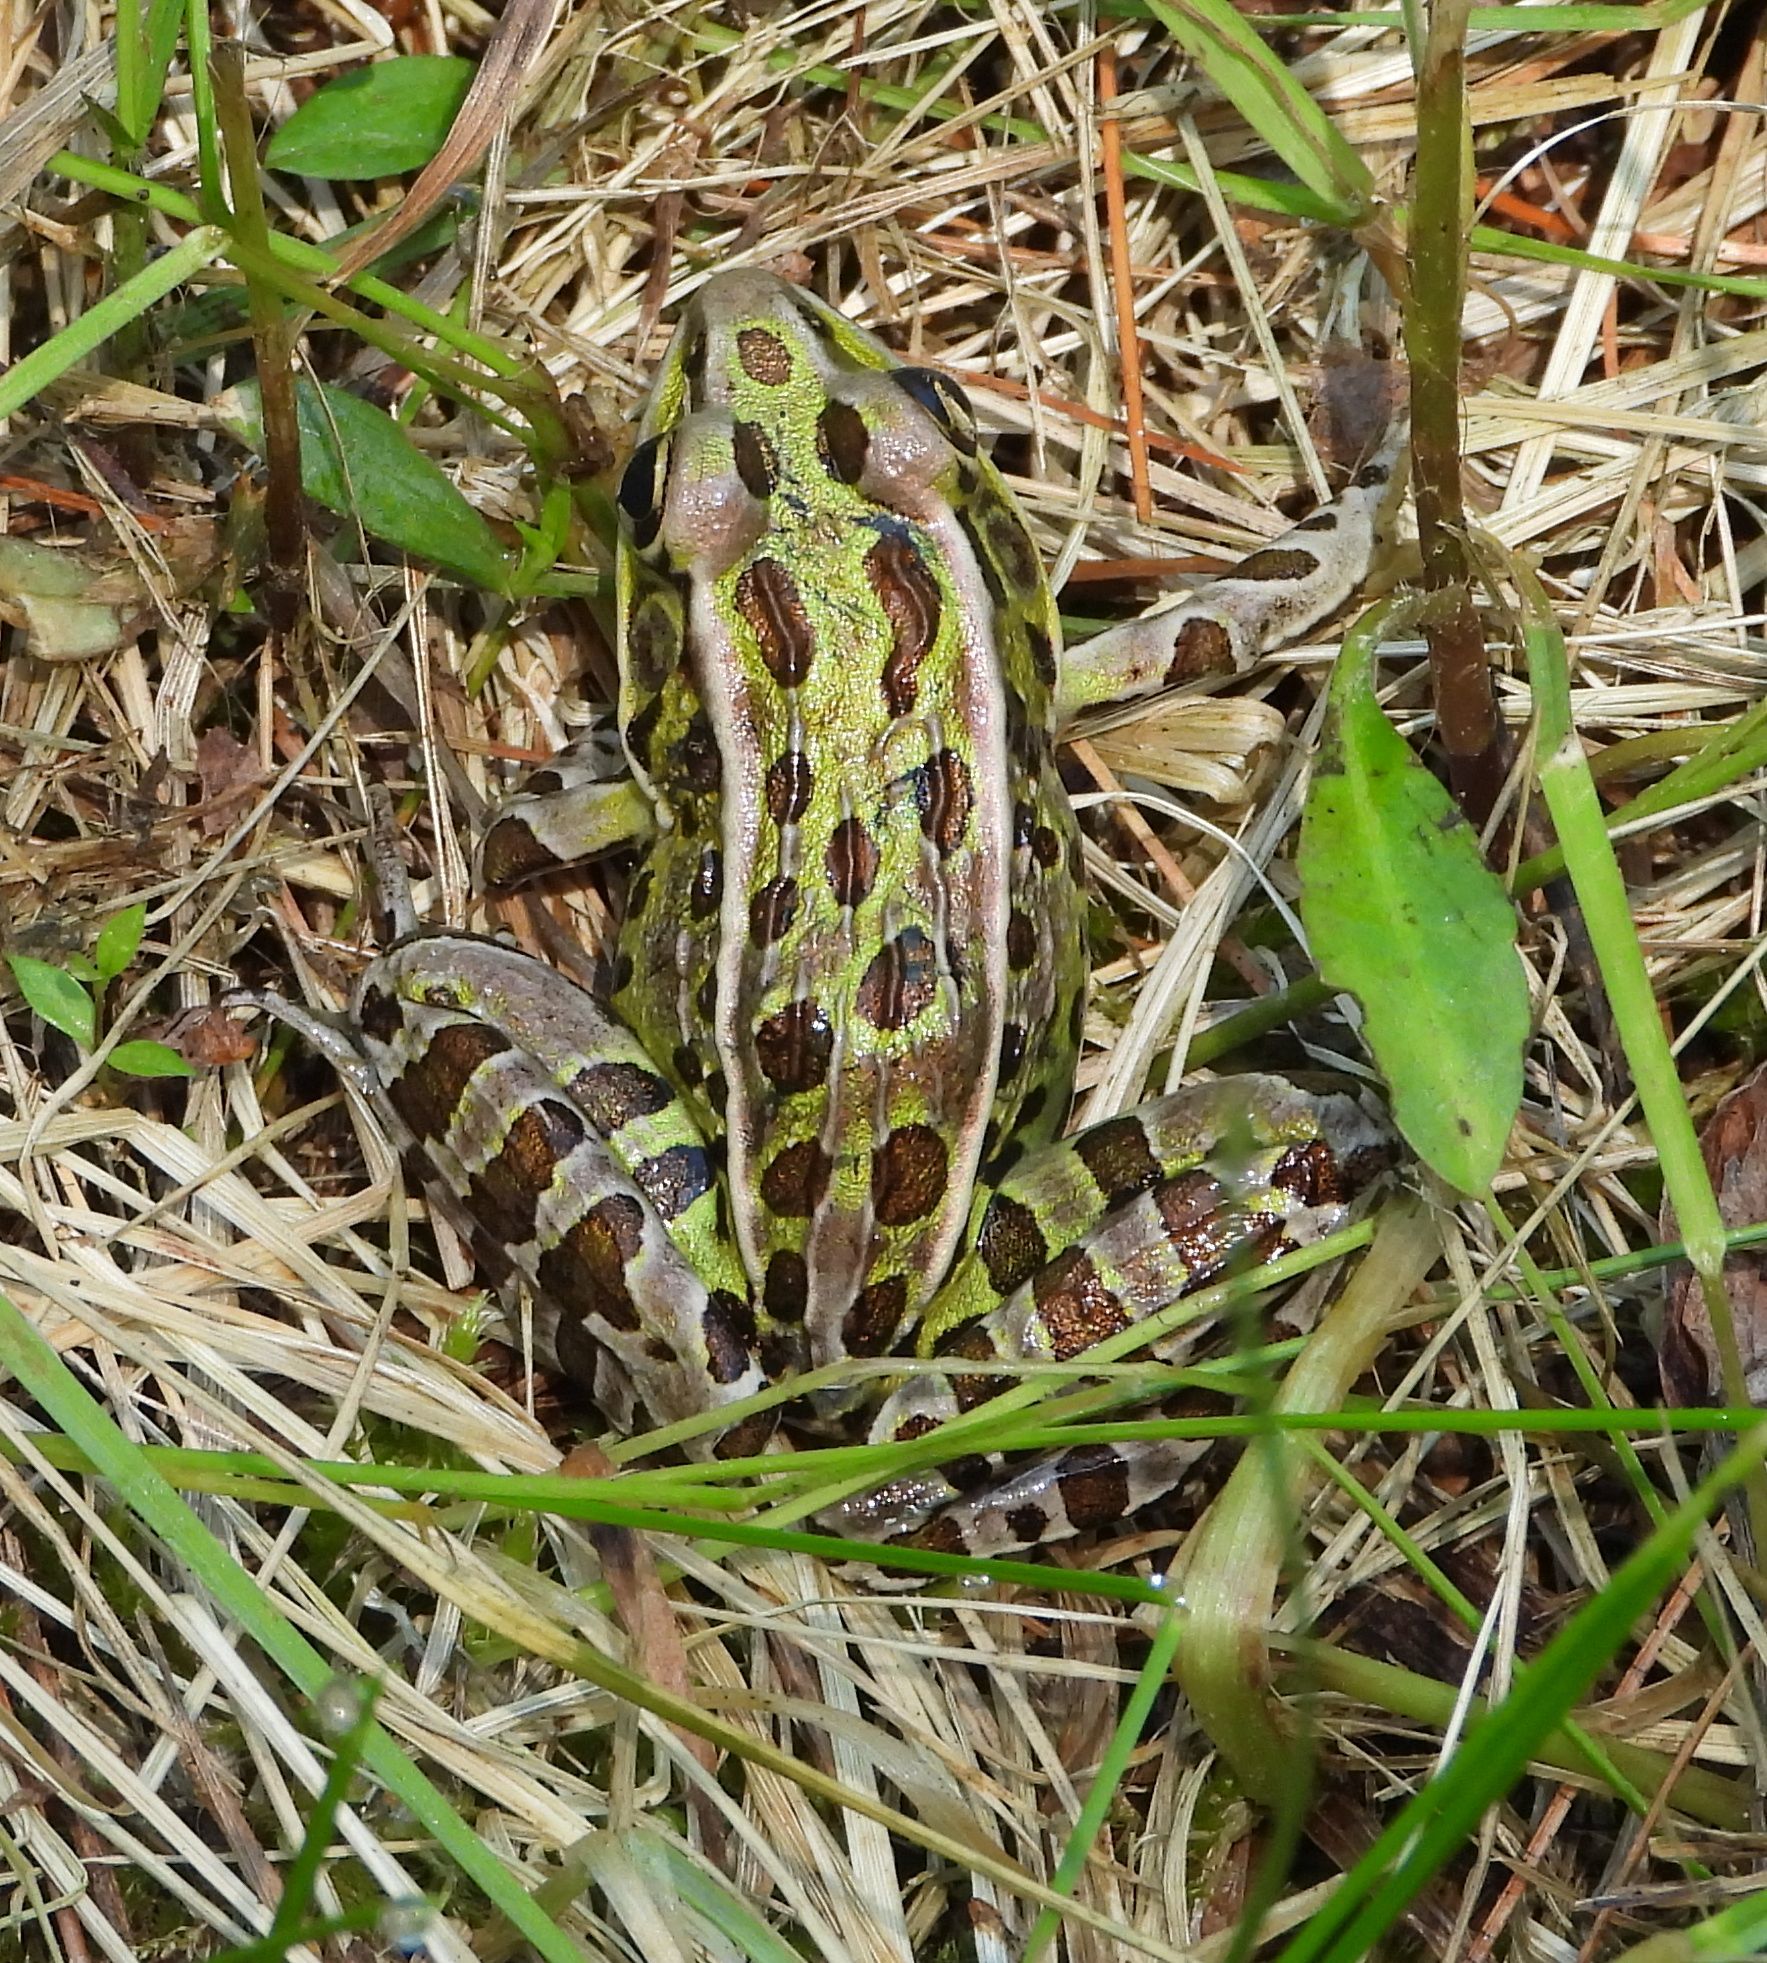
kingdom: Animalia
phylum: Chordata
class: Amphibia
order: Anura
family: Ranidae
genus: Lithobates
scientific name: Lithobates pipiens
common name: Northern leopard frog
